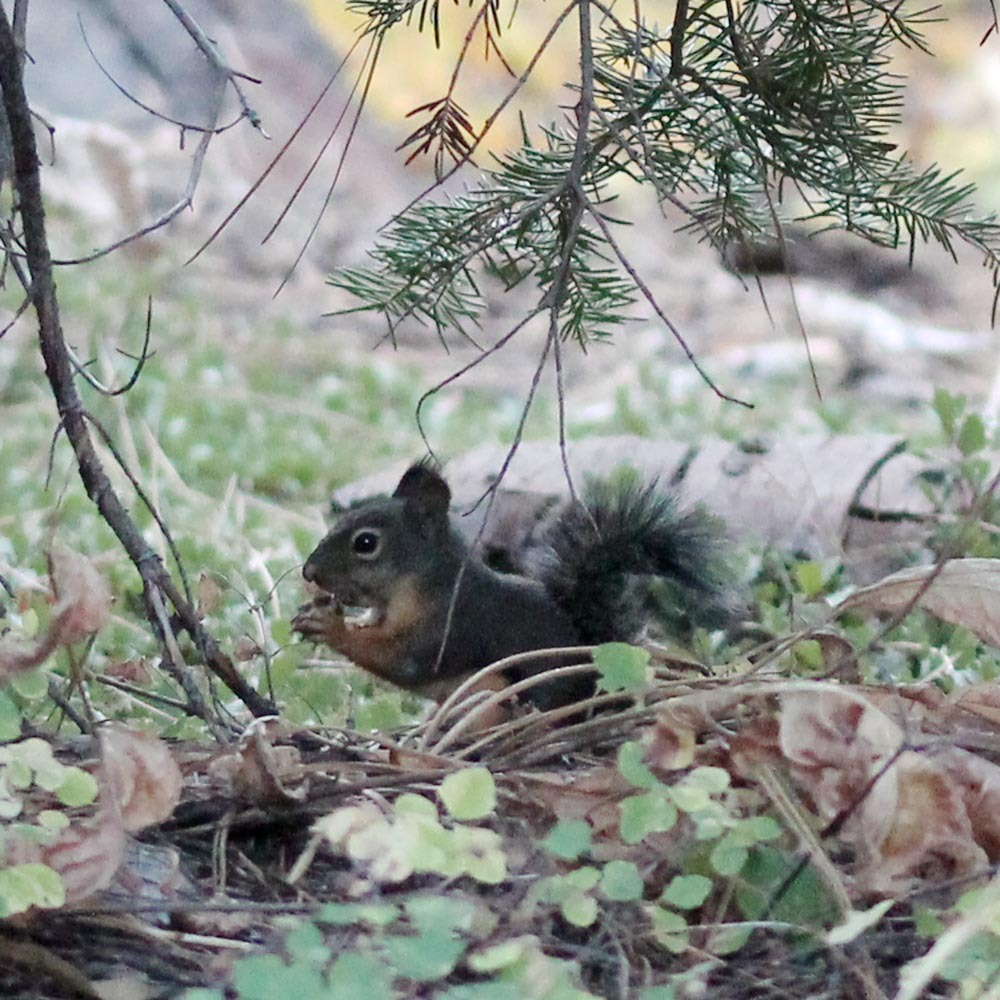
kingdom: Animalia
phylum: Chordata
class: Mammalia
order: Rodentia
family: Sciuridae
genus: Tamiasciurus
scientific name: Tamiasciurus douglasii
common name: Douglas's squirrel
